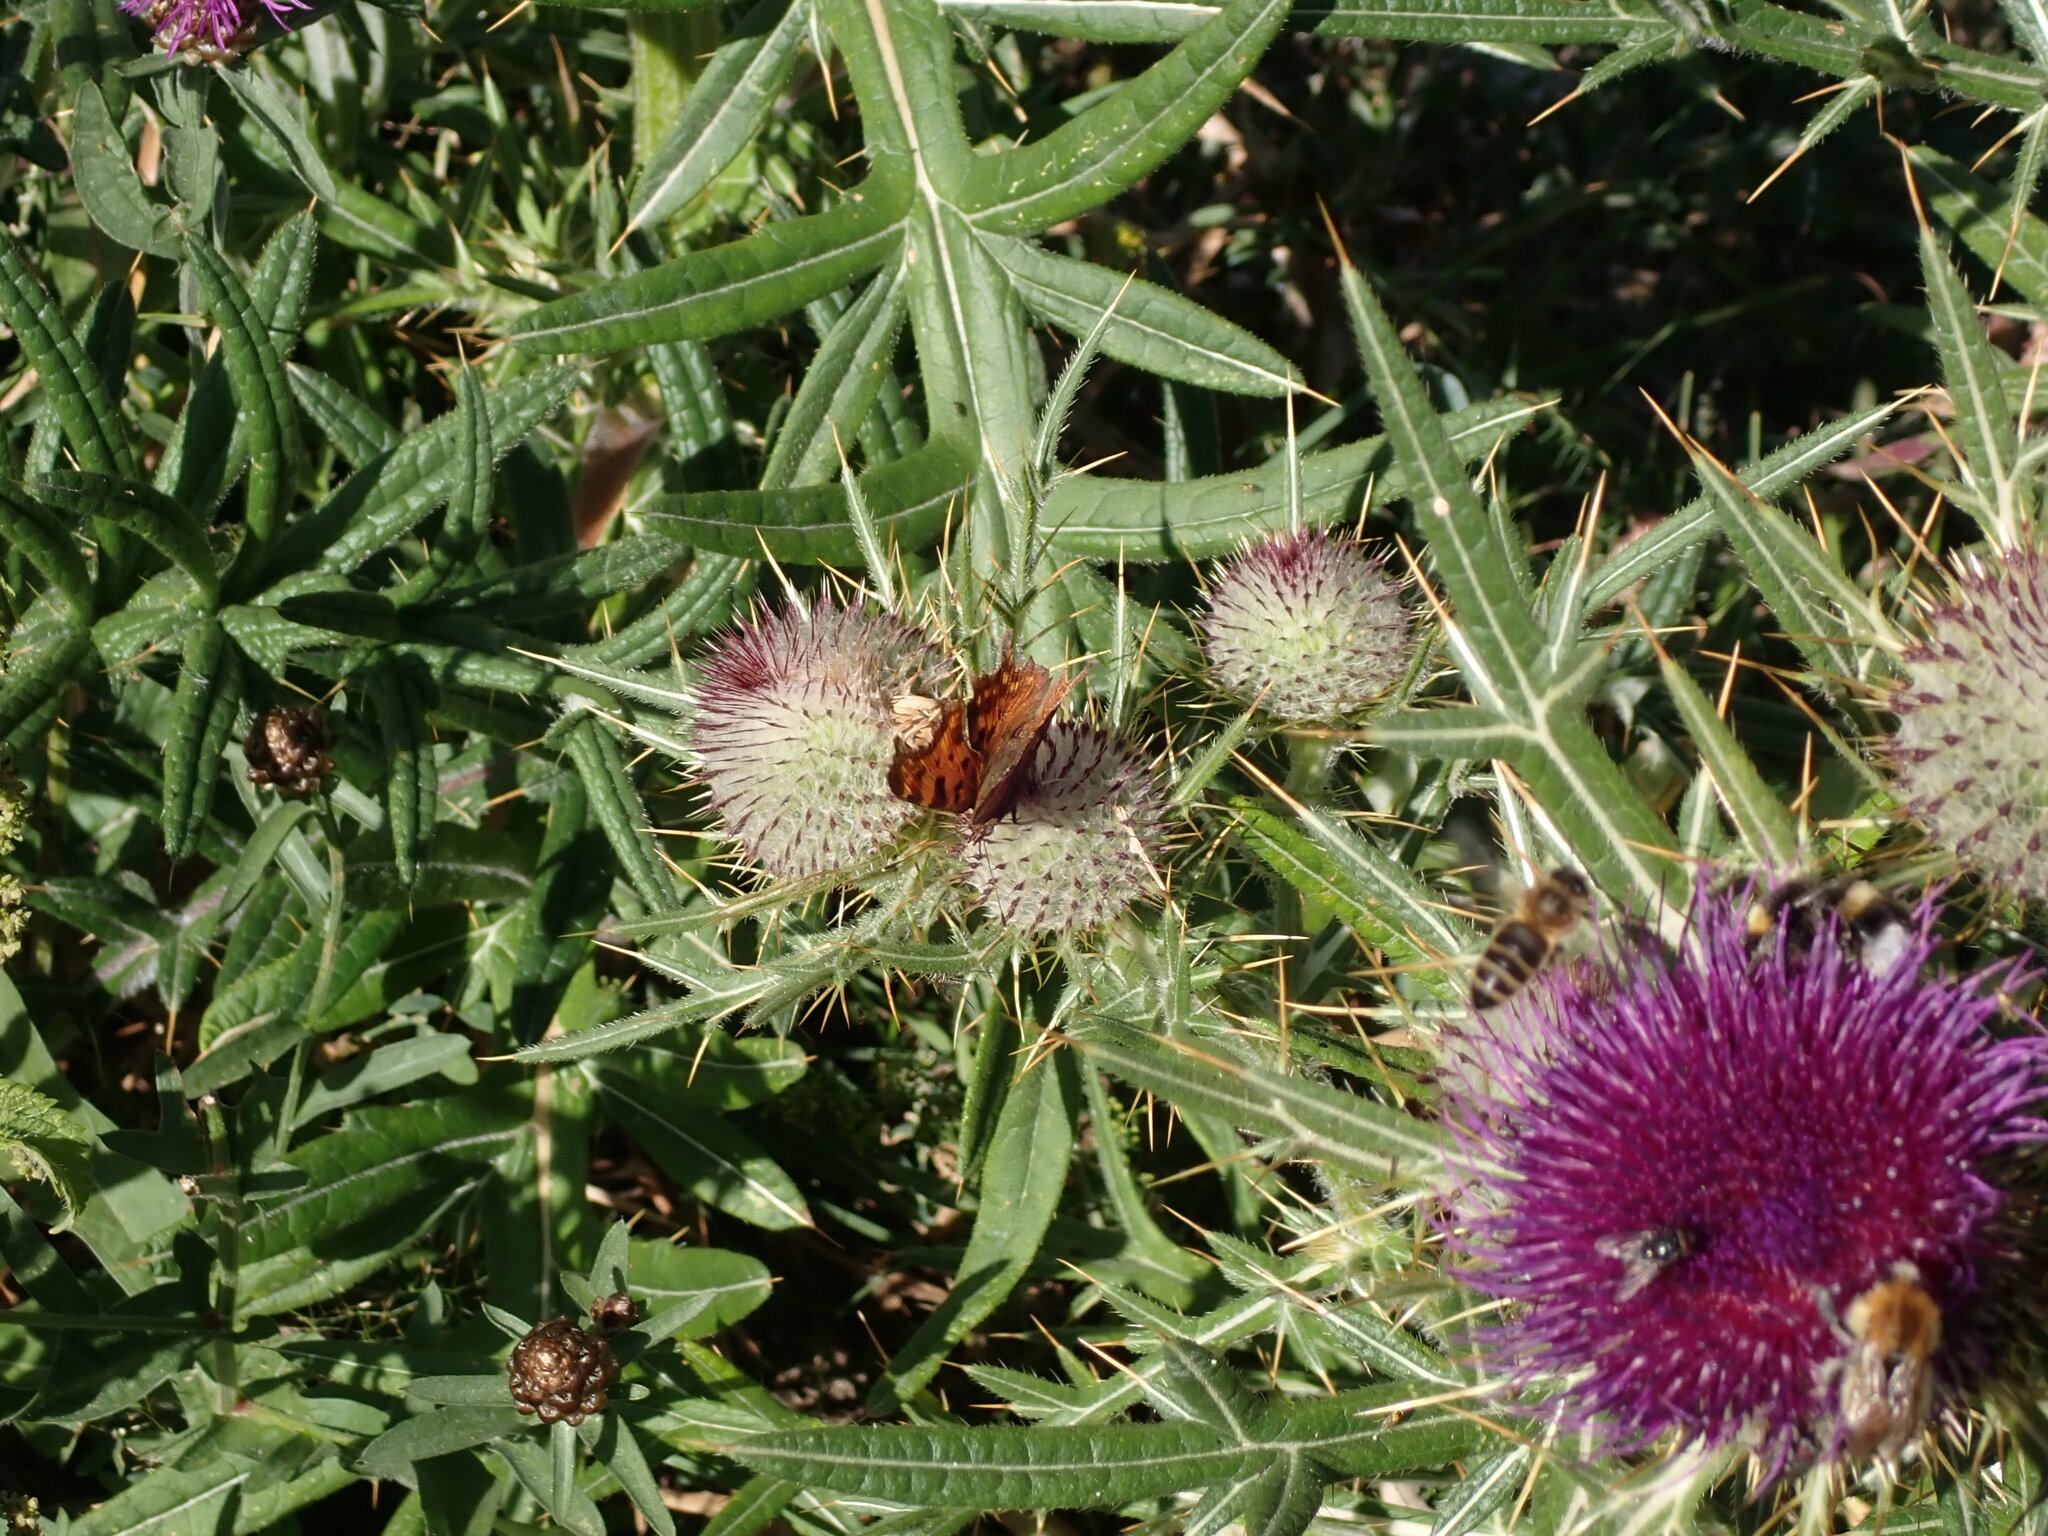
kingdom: Animalia
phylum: Arthropoda
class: Insecta
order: Lepidoptera
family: Nymphalidae
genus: Polygonia
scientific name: Polygonia c-album
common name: Comma
